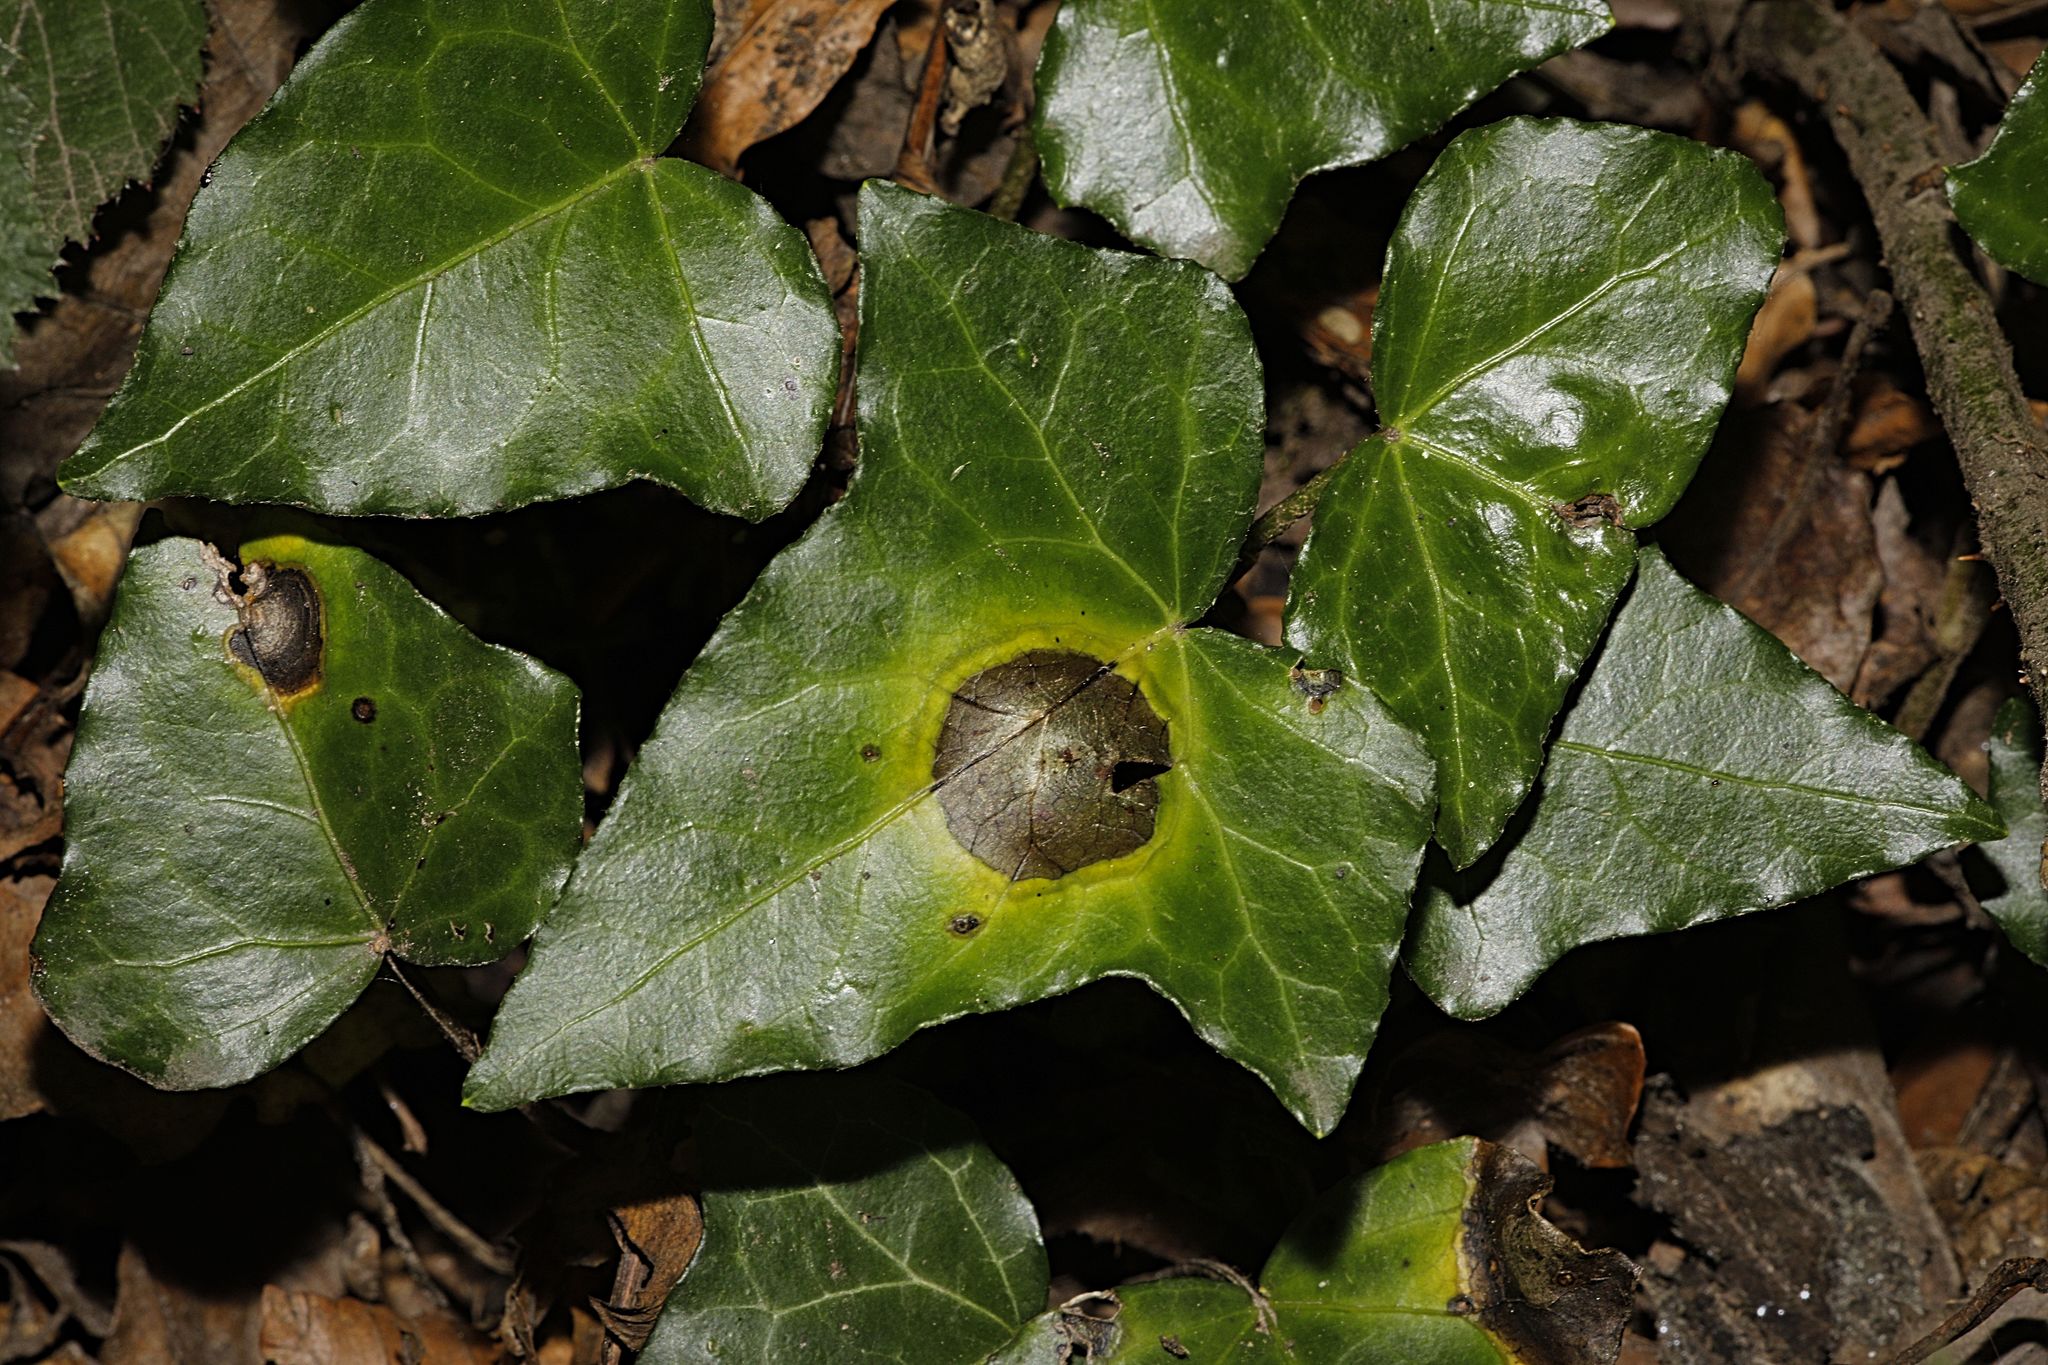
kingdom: Plantae
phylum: Tracheophyta
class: Magnoliopsida
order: Apiales
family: Araliaceae
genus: Hedera
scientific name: Hedera helix
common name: Ivy
